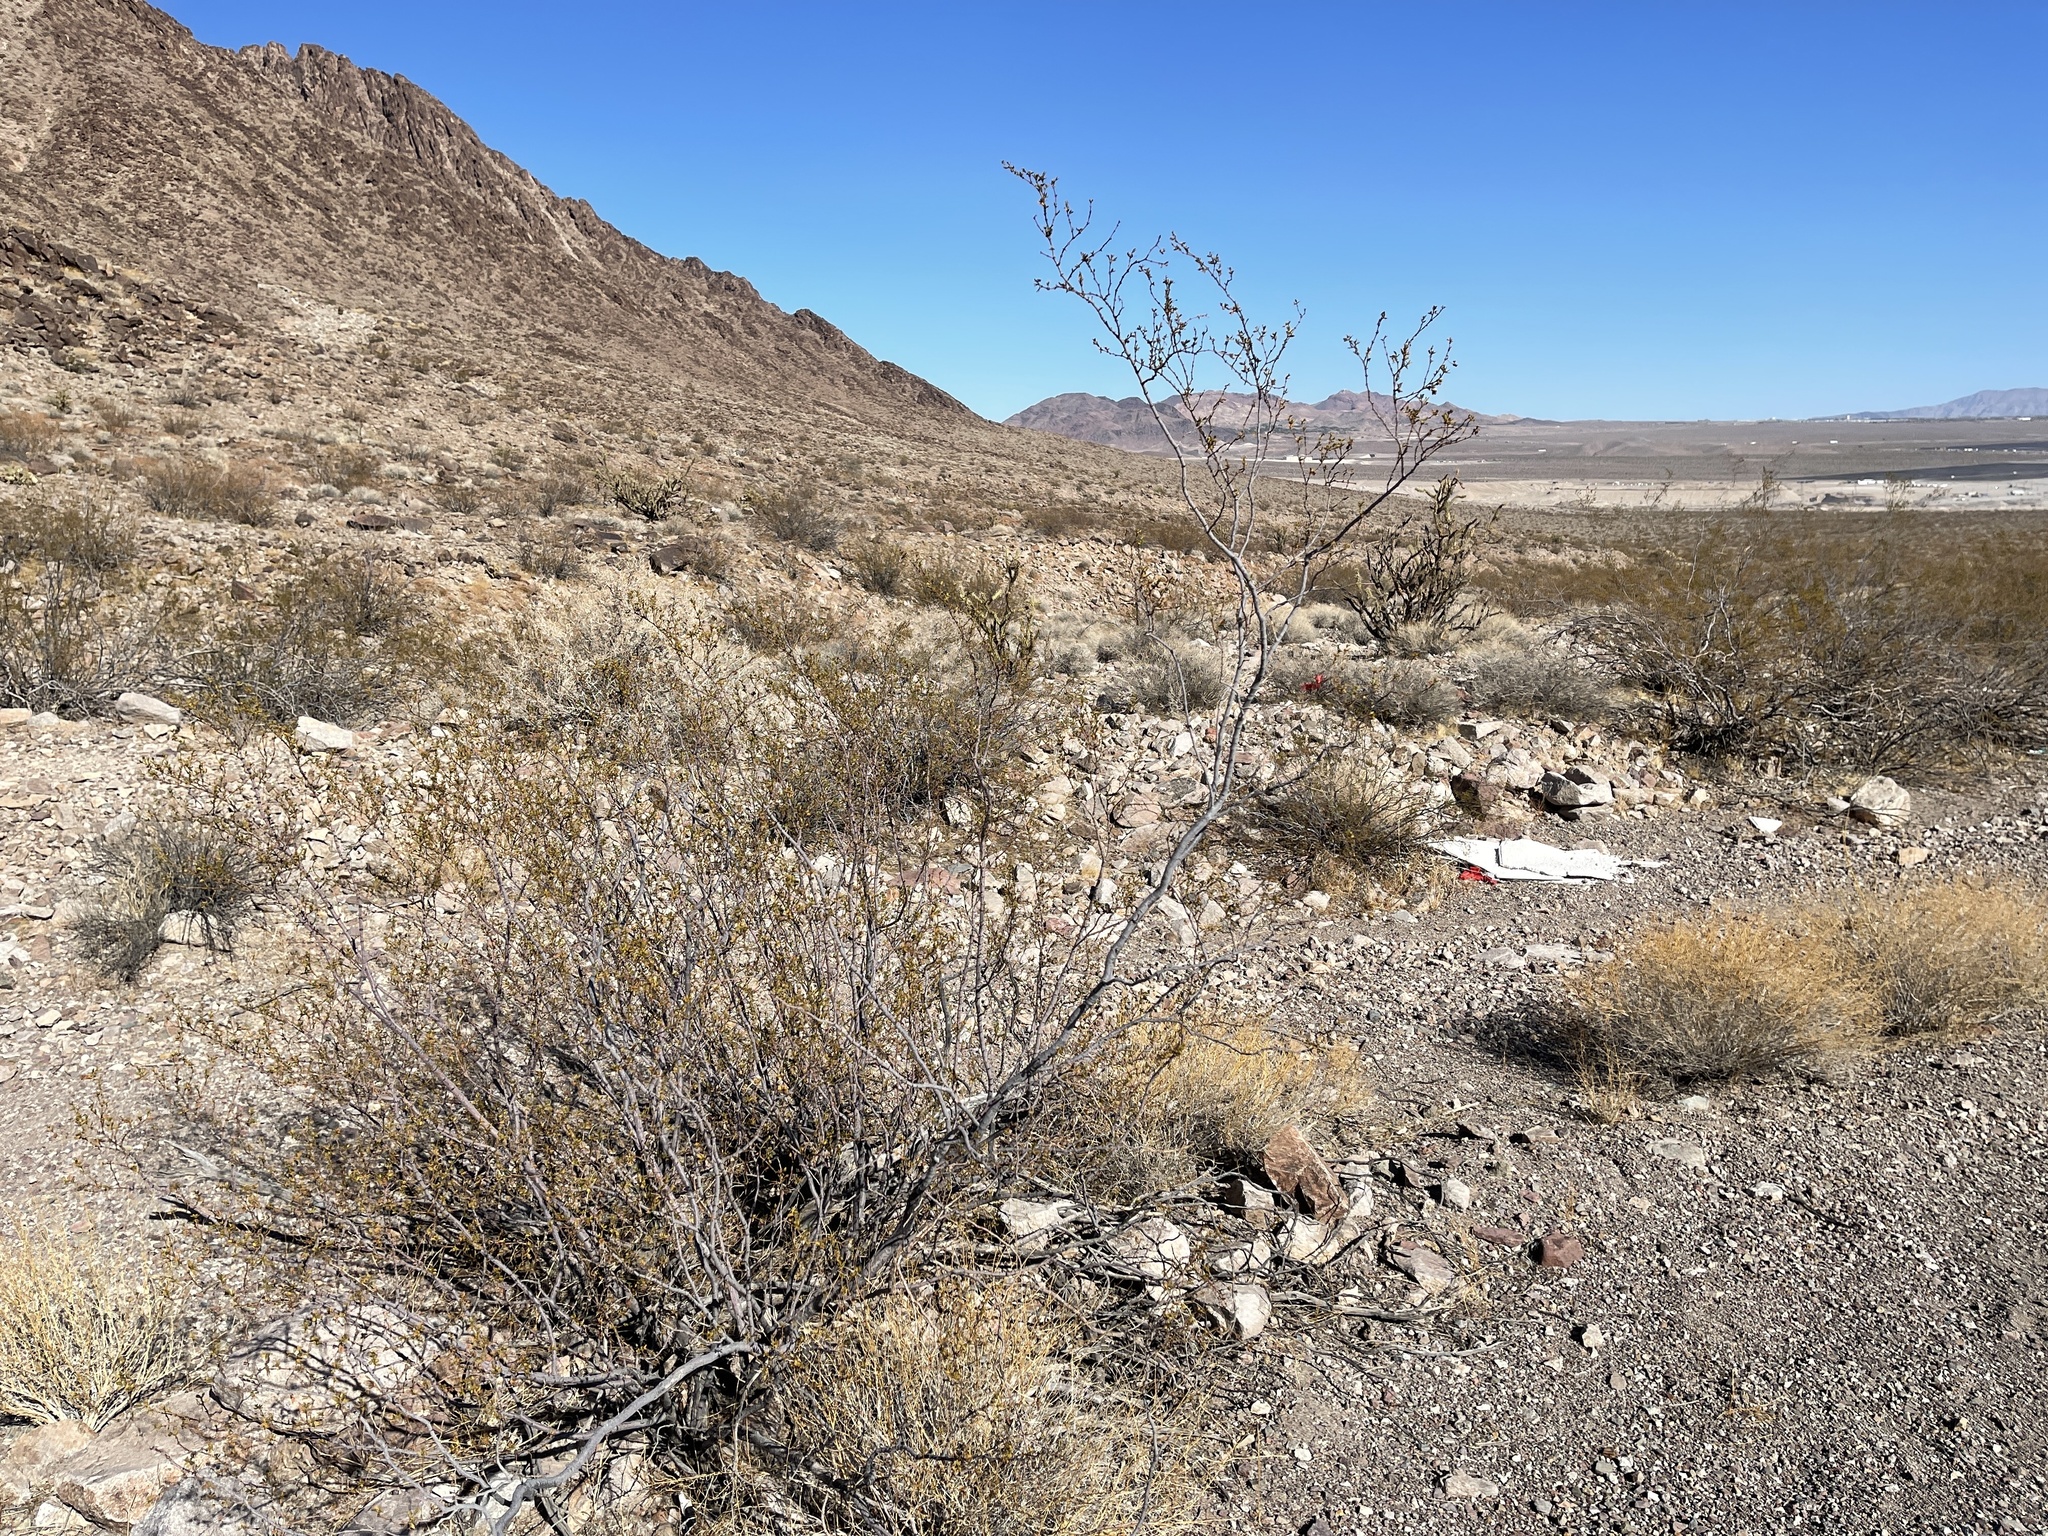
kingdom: Plantae
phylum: Tracheophyta
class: Magnoliopsida
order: Zygophyllales
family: Zygophyllaceae
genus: Larrea
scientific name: Larrea tridentata
